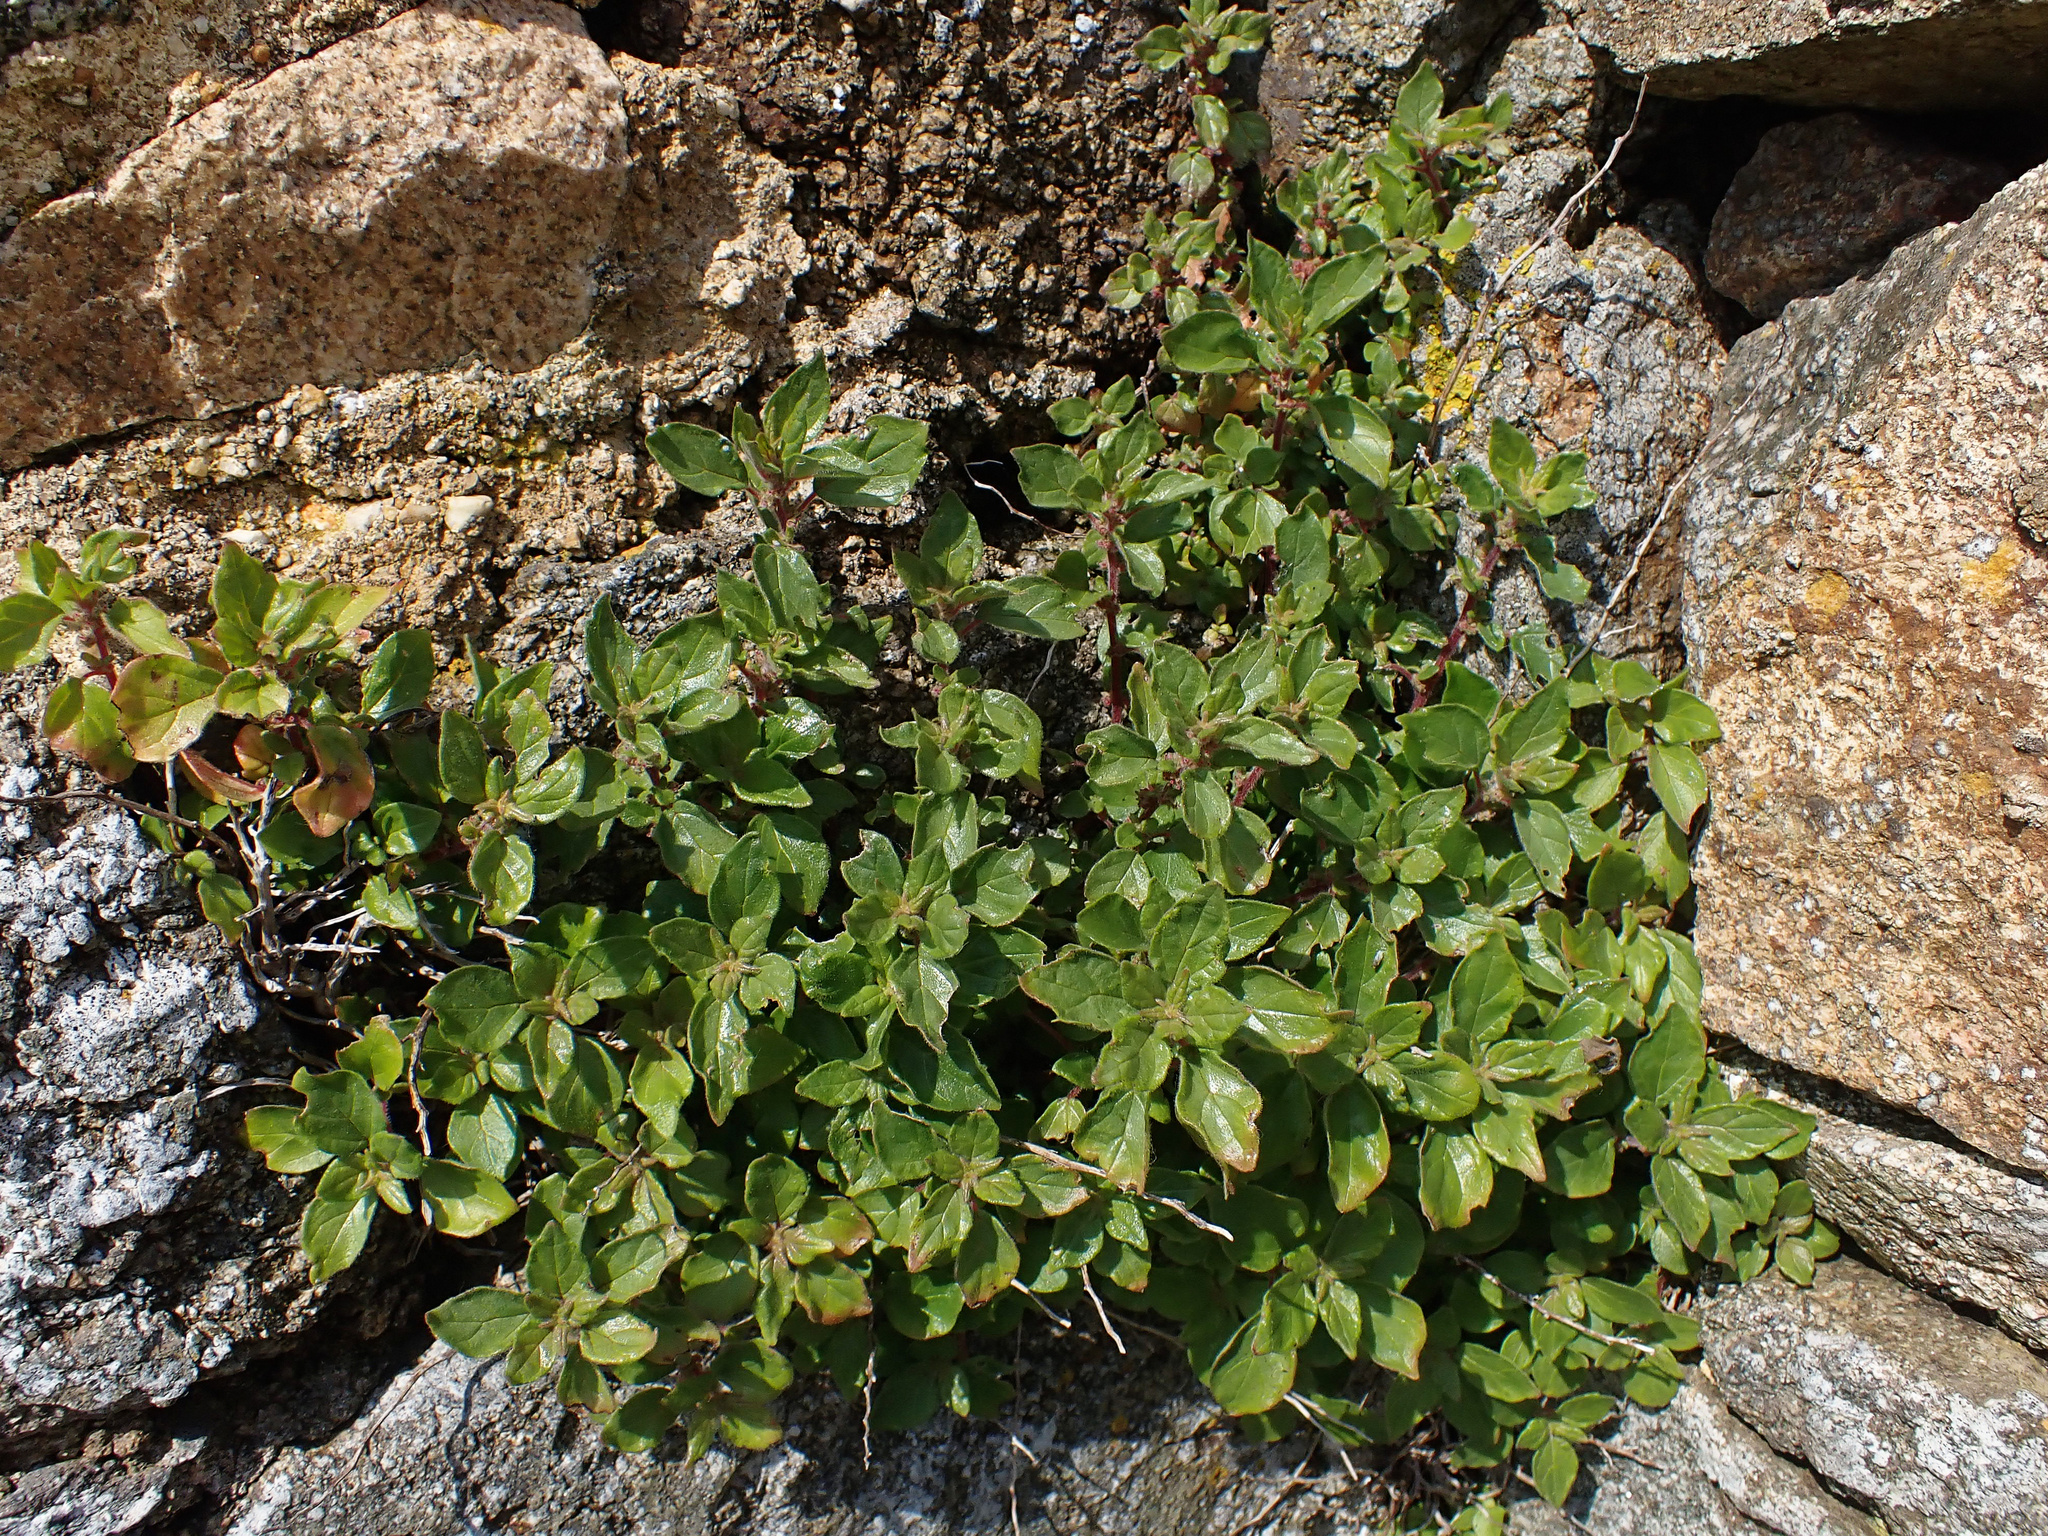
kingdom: Plantae
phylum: Tracheophyta
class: Magnoliopsida
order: Rosales
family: Urticaceae
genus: Parietaria
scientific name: Parietaria judaica
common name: Pellitory-of-the-wall
